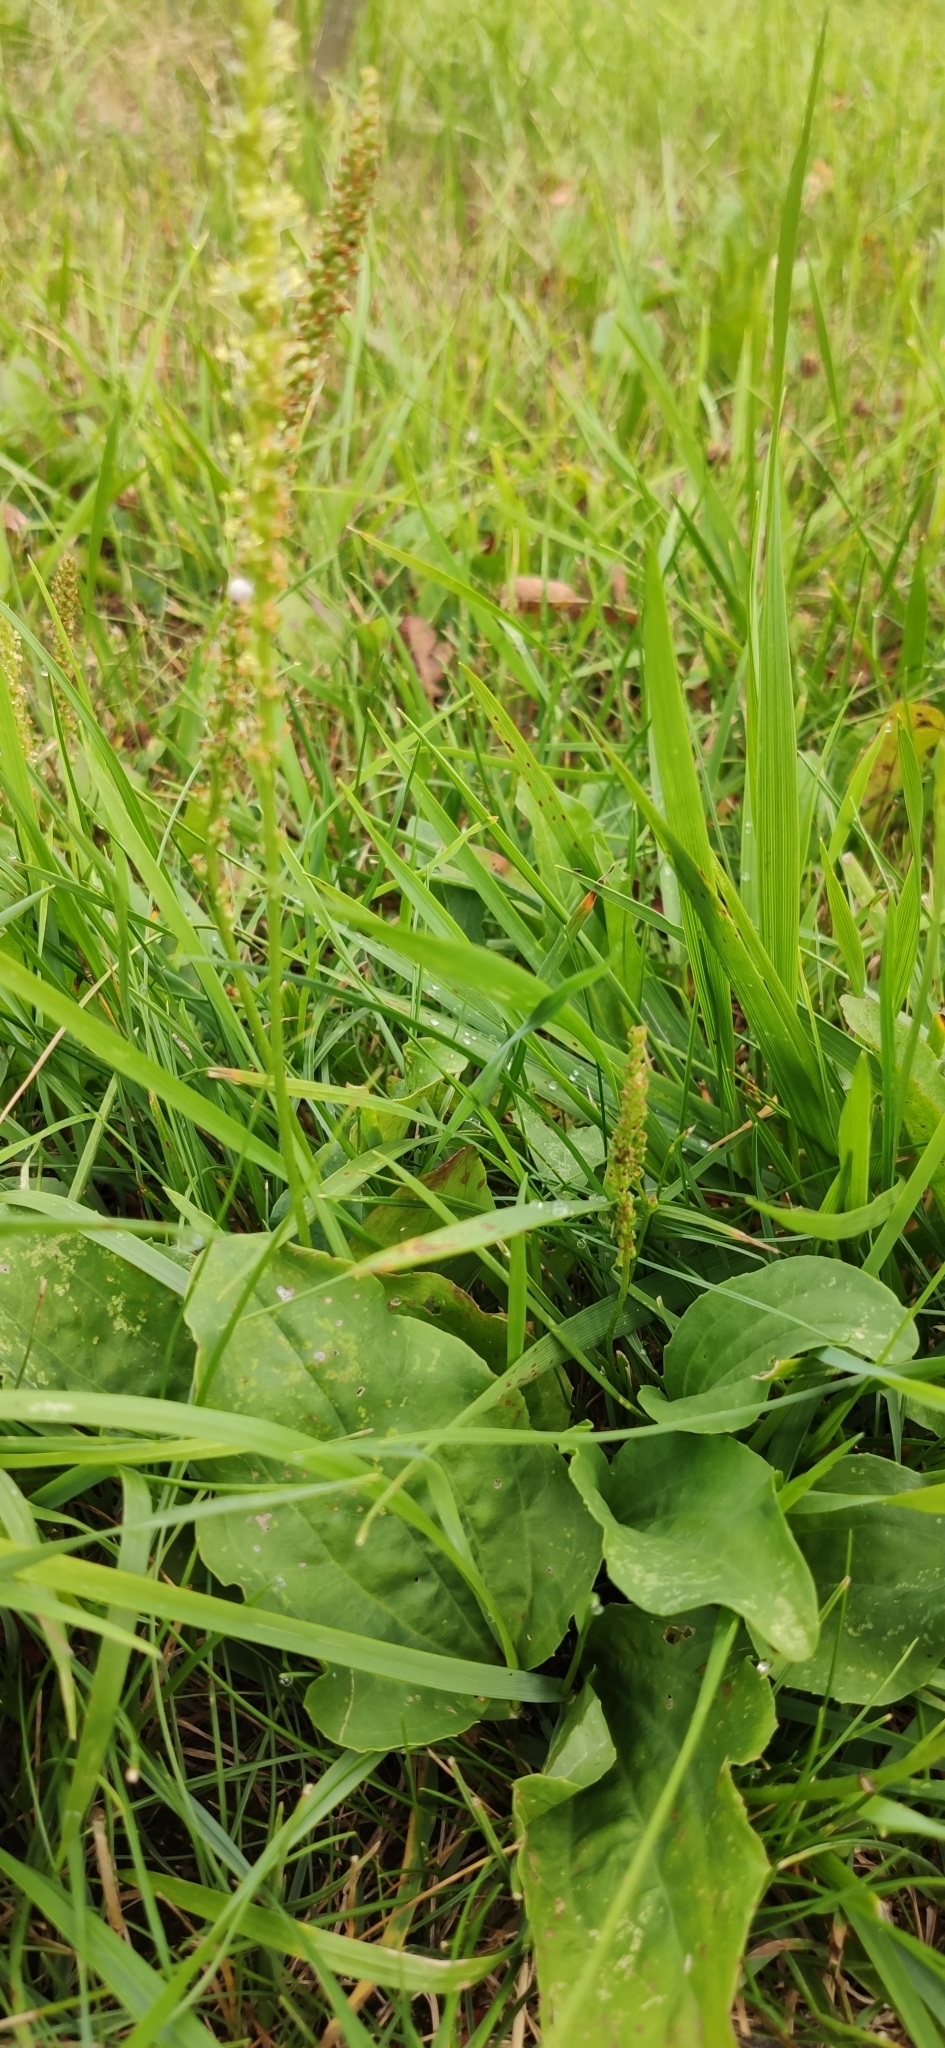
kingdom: Plantae
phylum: Tracheophyta
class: Magnoliopsida
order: Lamiales
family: Plantaginaceae
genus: Plantago
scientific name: Plantago major
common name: Common plantain
